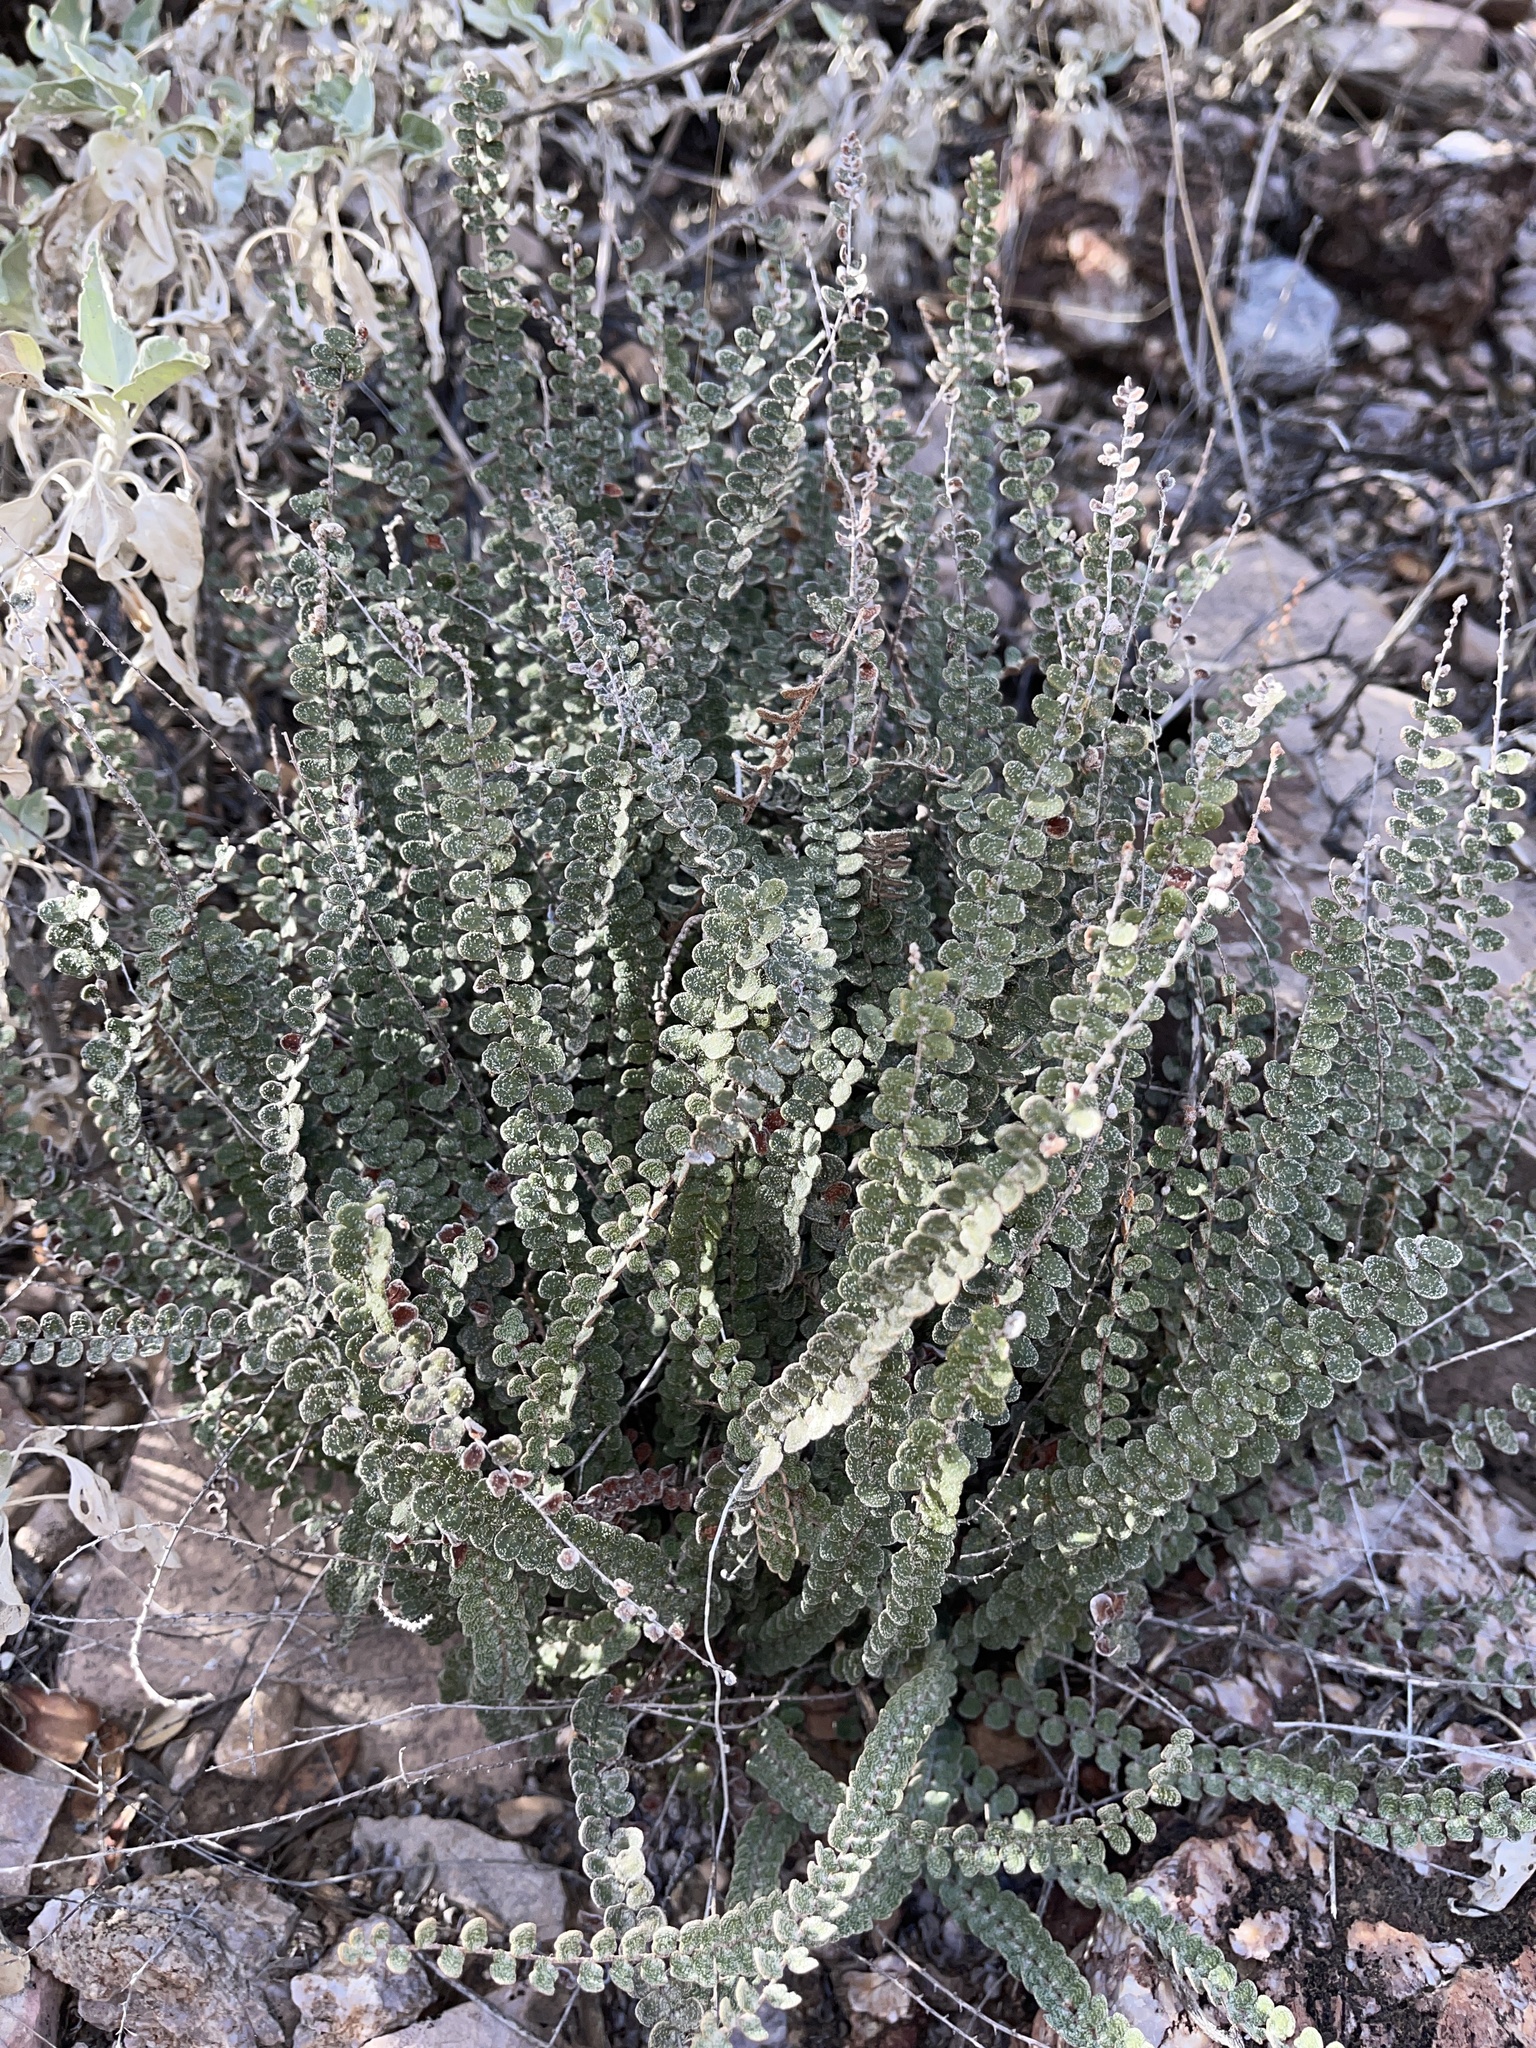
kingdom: Plantae
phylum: Tracheophyta
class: Polypodiopsida
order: Polypodiales
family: Pteridaceae
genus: Astrolepis
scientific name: Astrolepis cochisensis
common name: Scaly cloak fern
